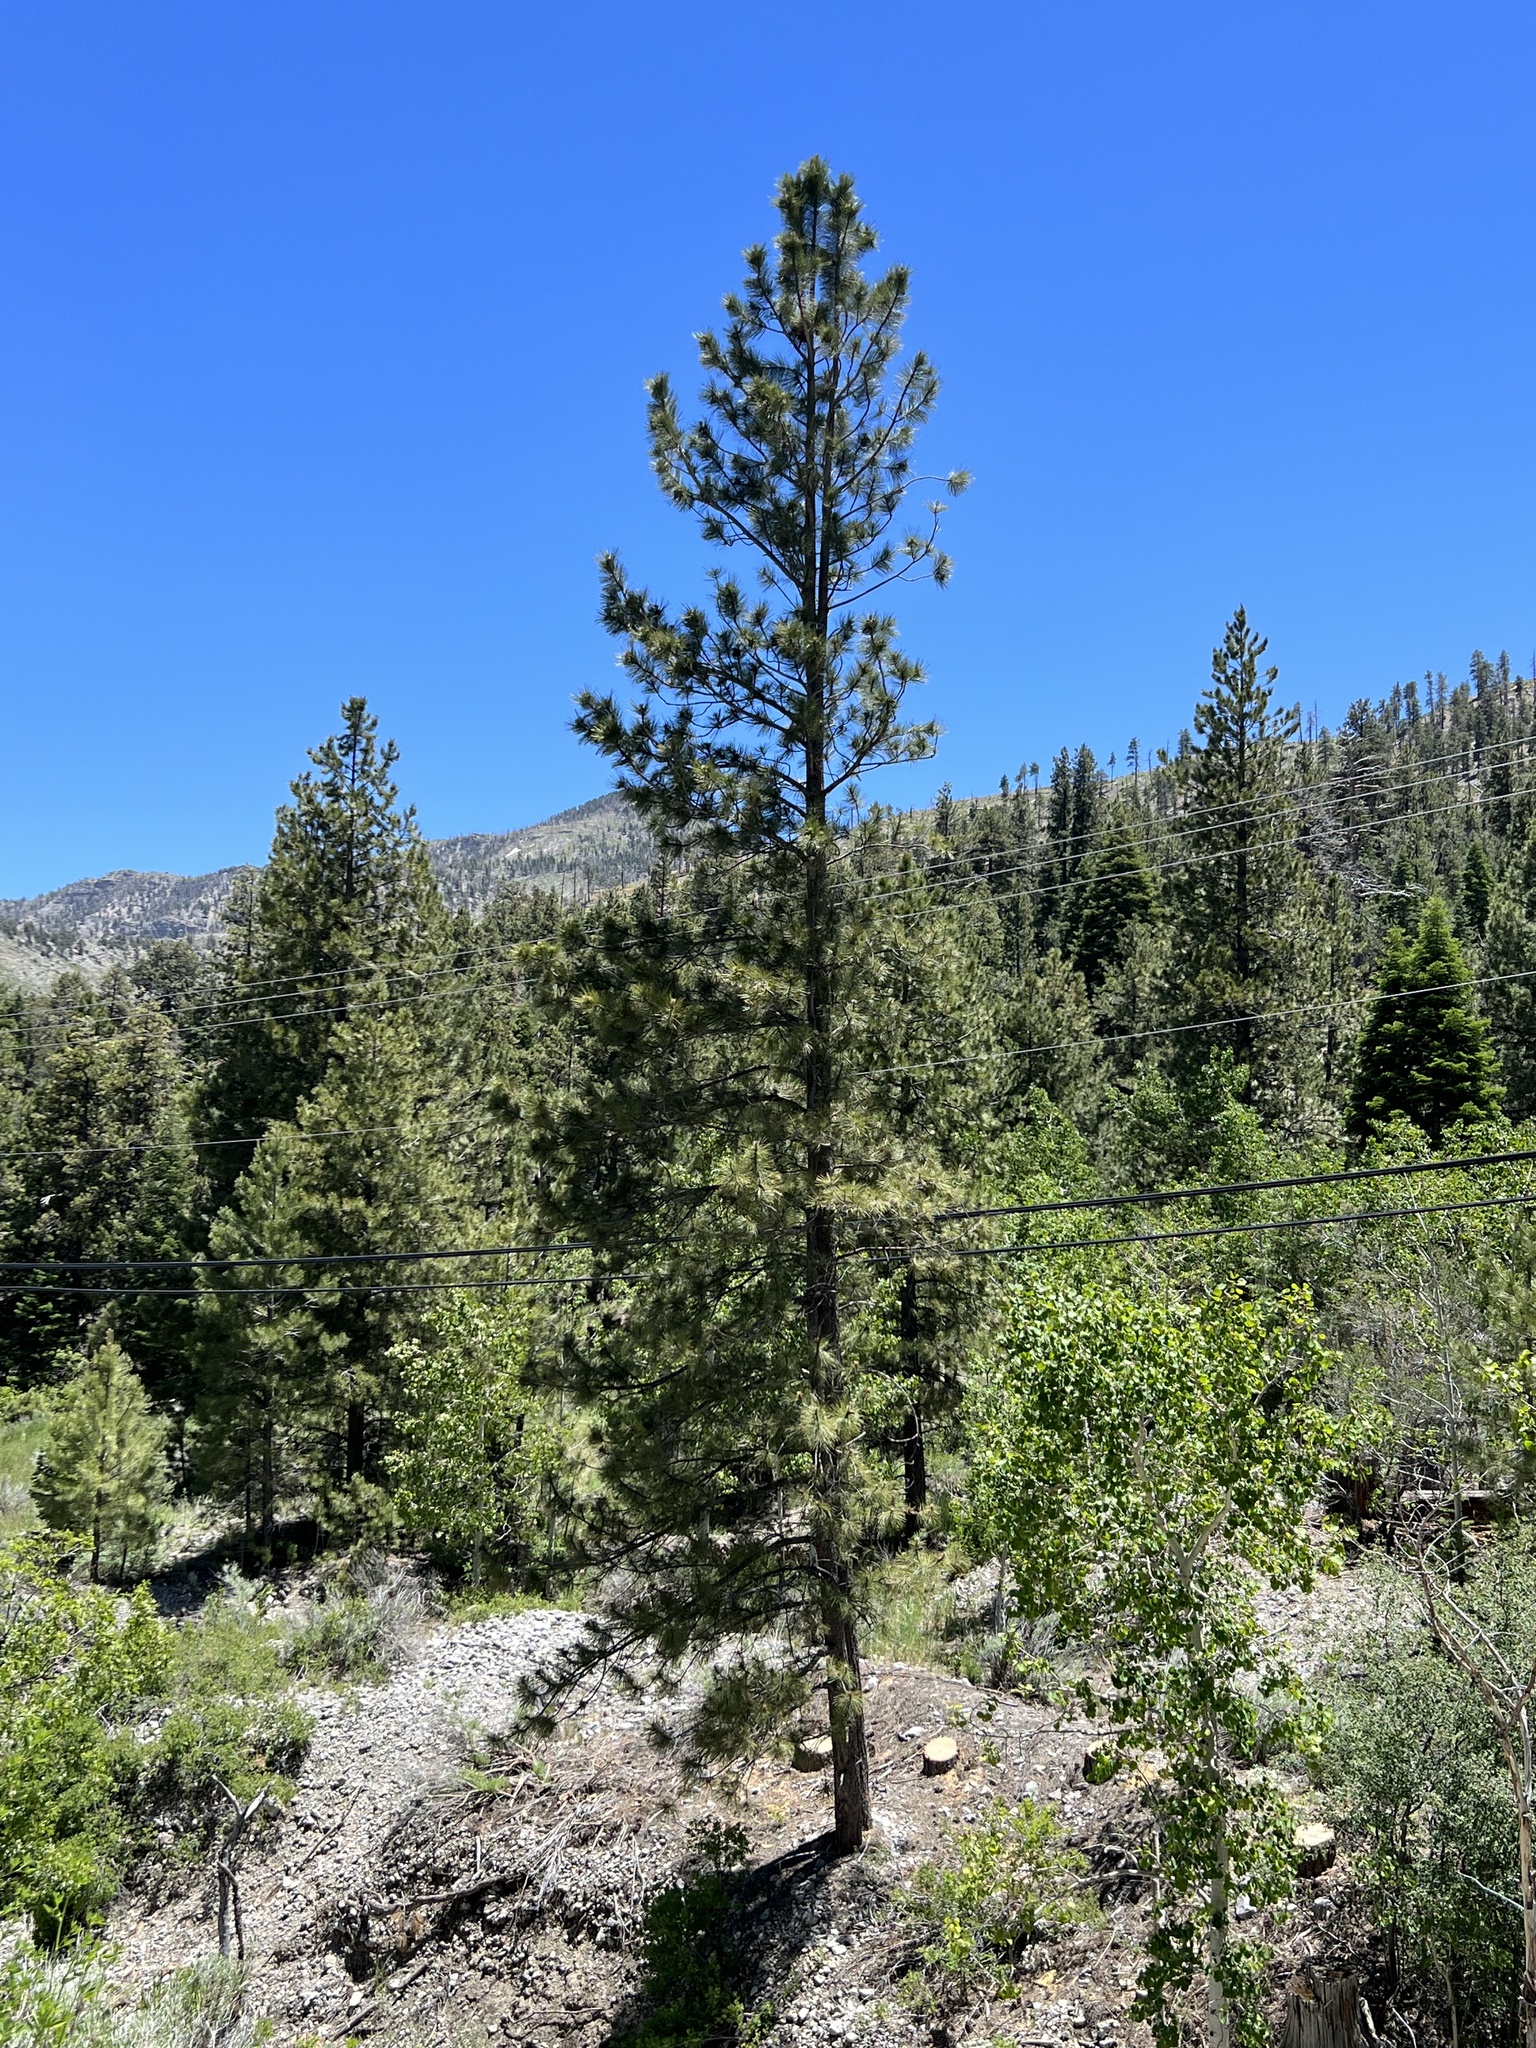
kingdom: Plantae
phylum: Tracheophyta
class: Pinopsida
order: Pinales
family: Pinaceae
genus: Pinus
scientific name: Pinus ponderosa
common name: Western yellow-pine
